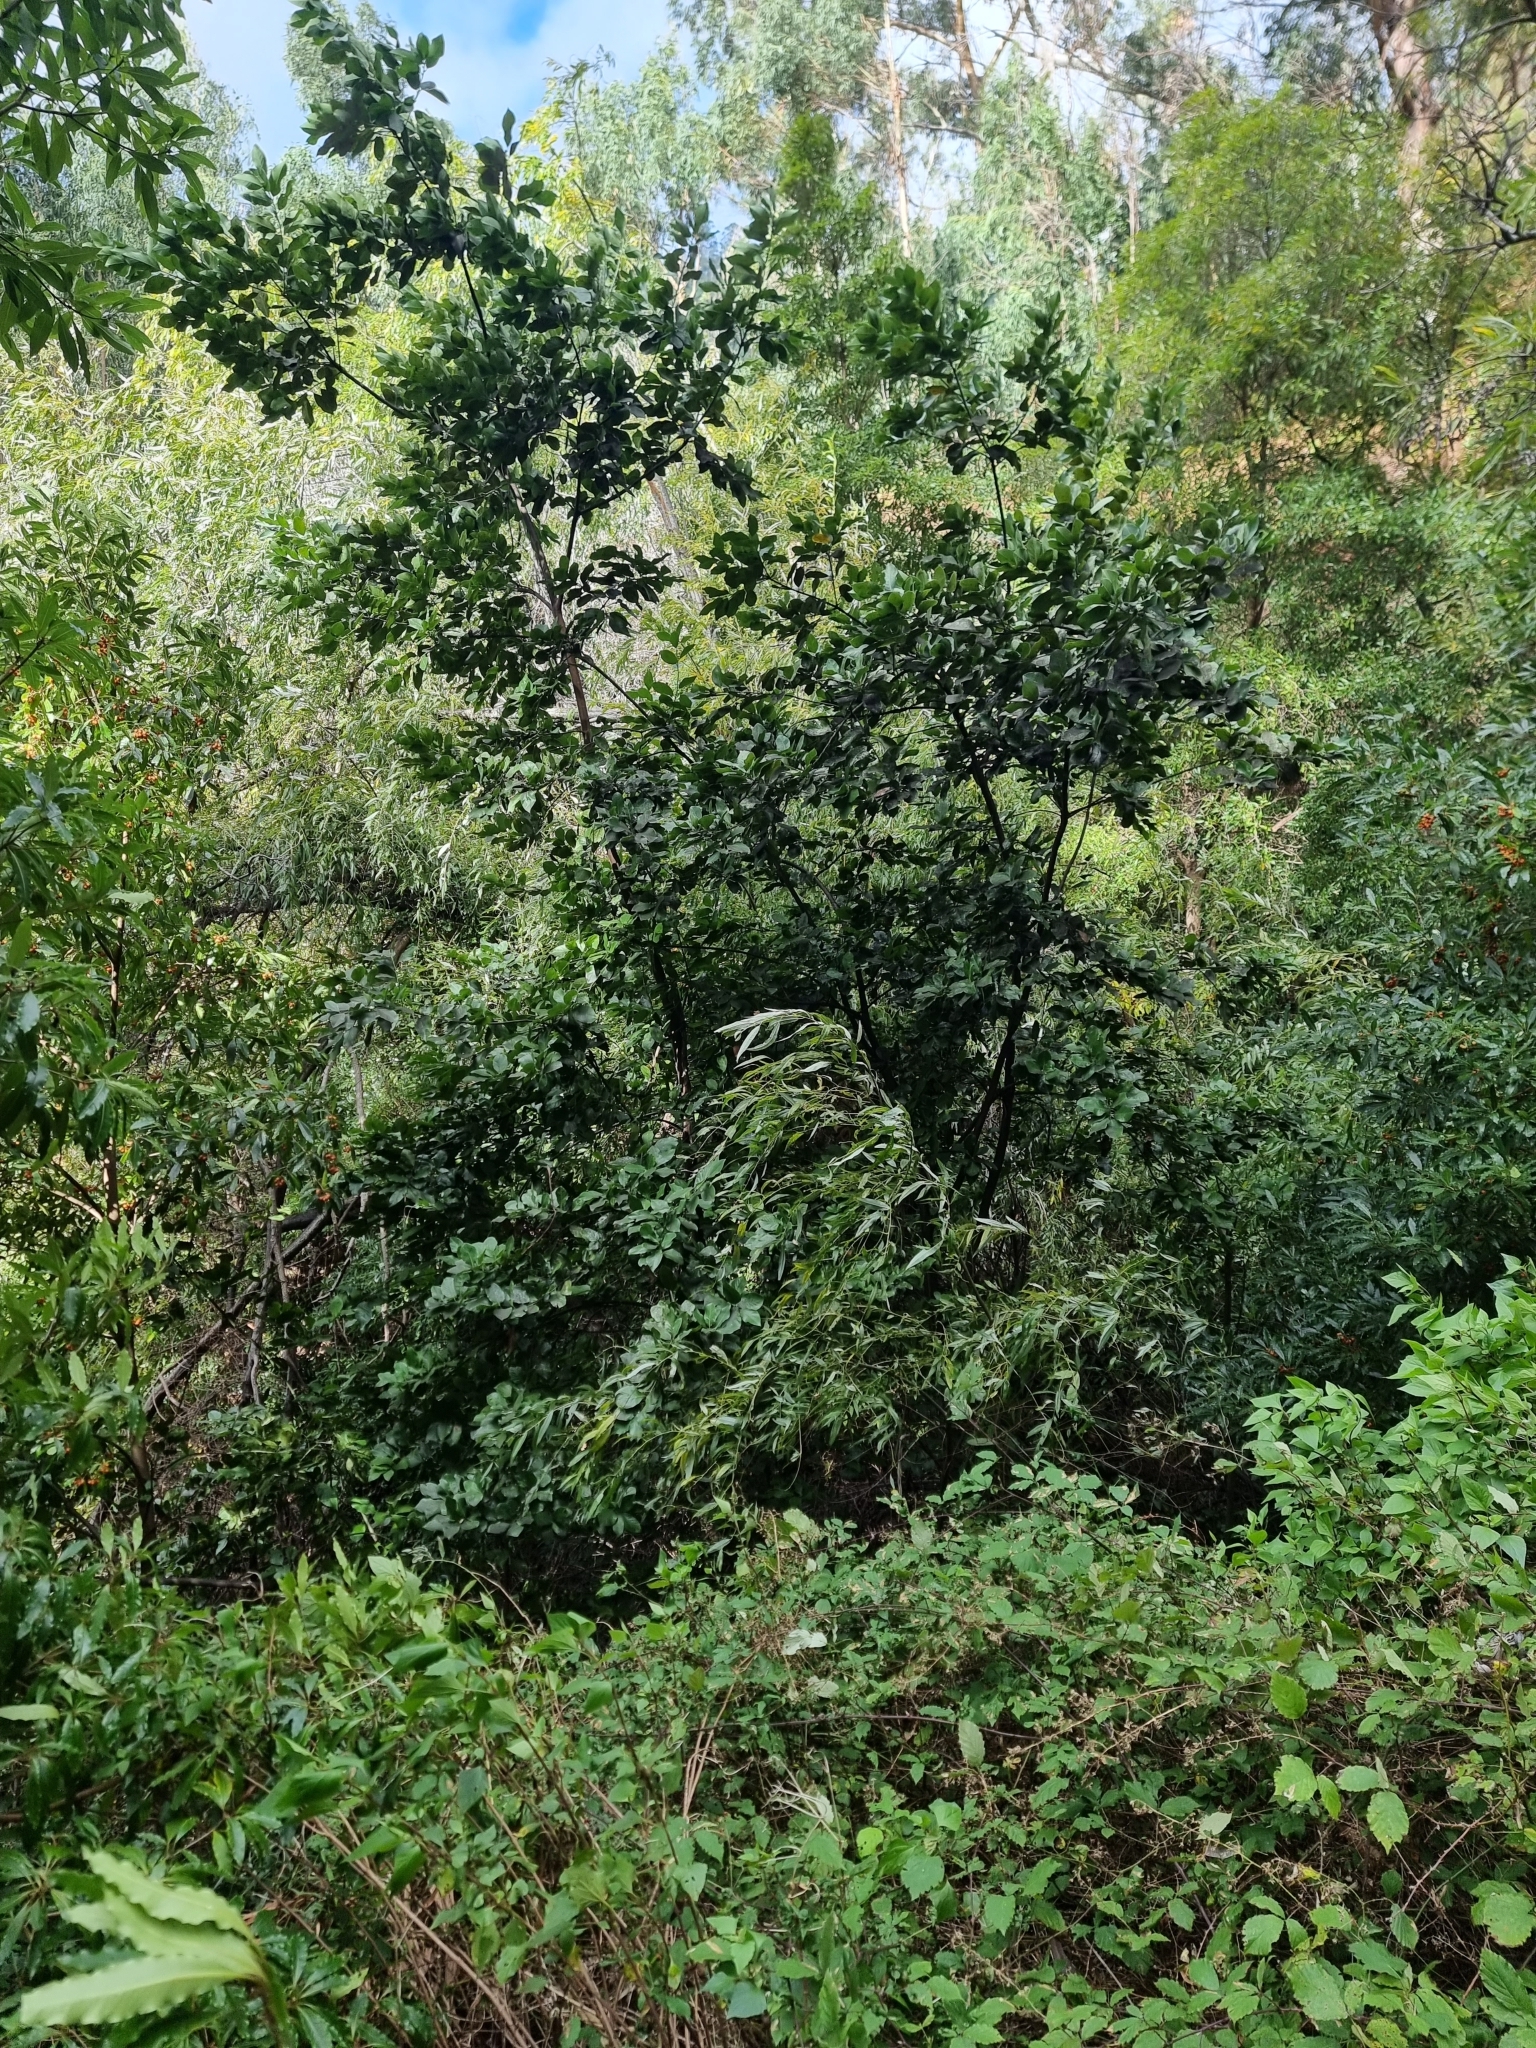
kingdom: Plantae
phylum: Tracheophyta
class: Magnoliopsida
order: Laurales
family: Lauraceae
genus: Laurus
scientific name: Laurus novocanariensis
